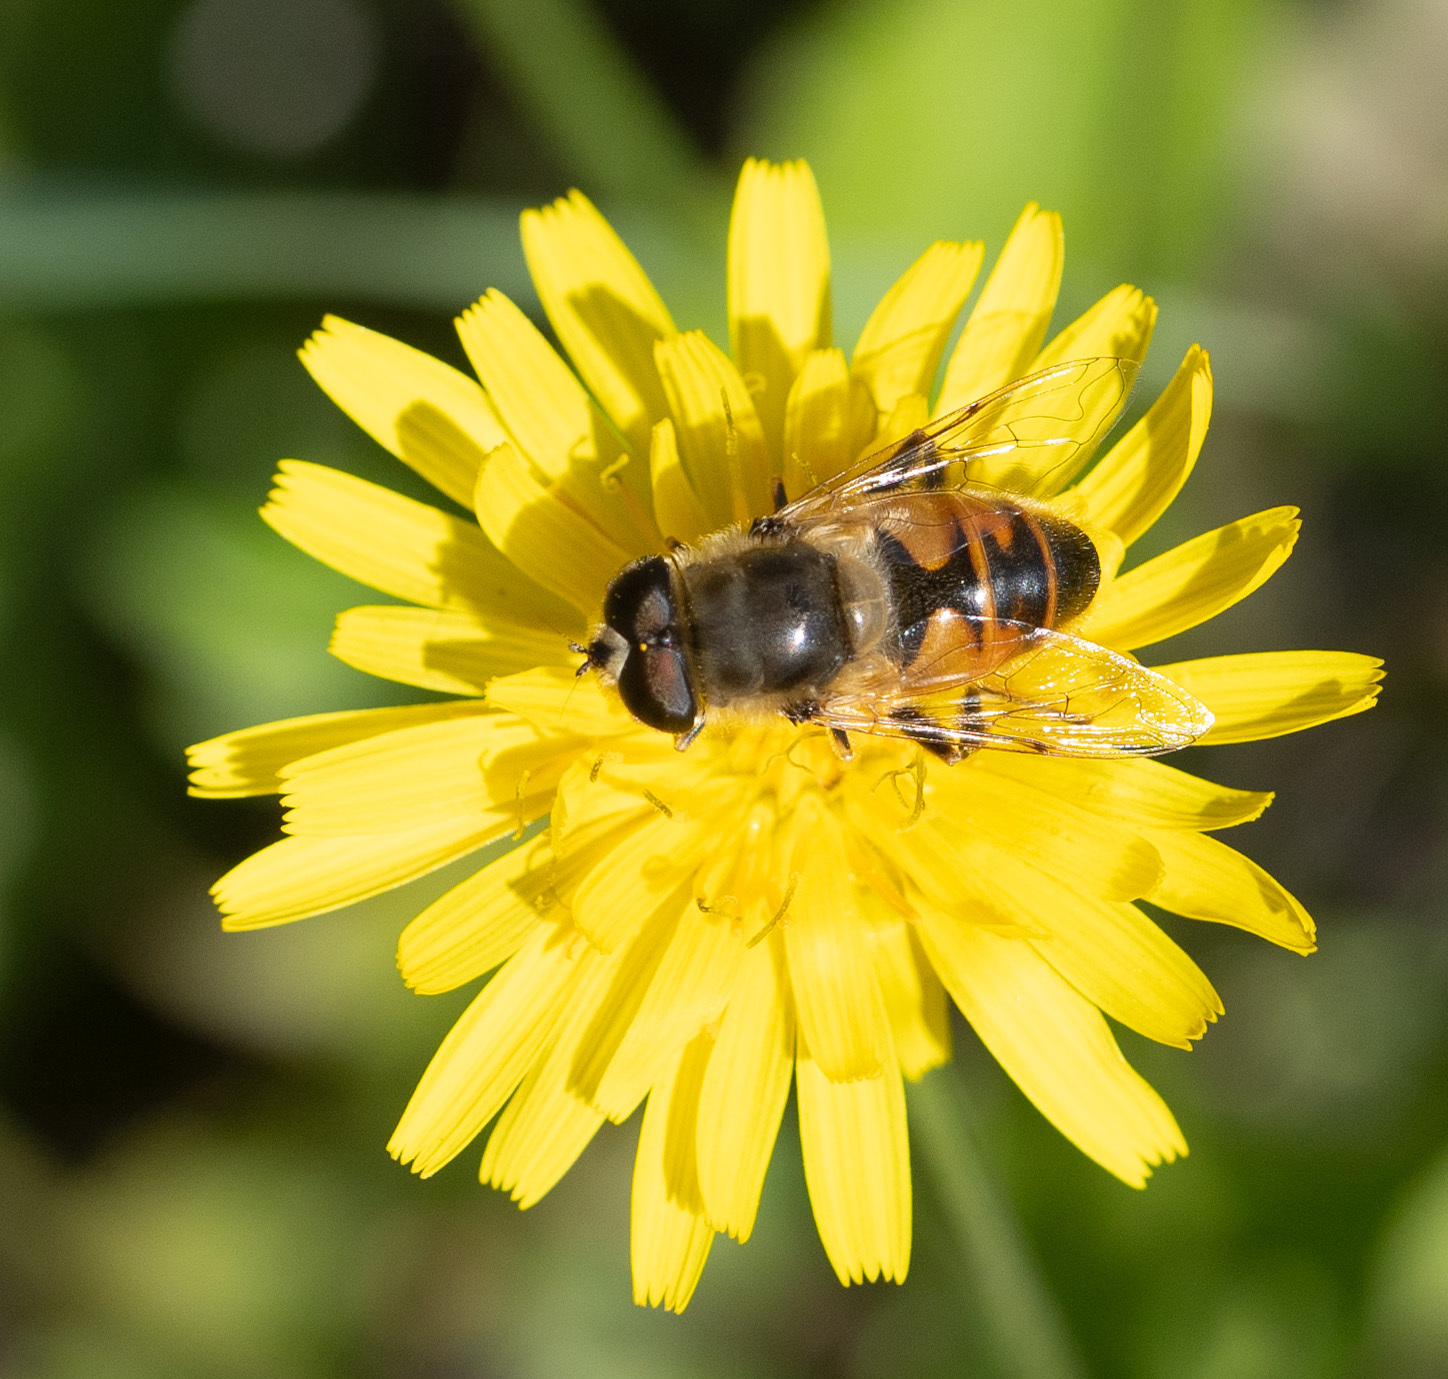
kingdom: Animalia
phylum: Arthropoda
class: Insecta
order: Diptera
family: Syrphidae
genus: Eristalis
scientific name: Eristalis tenax
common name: Drone fly
